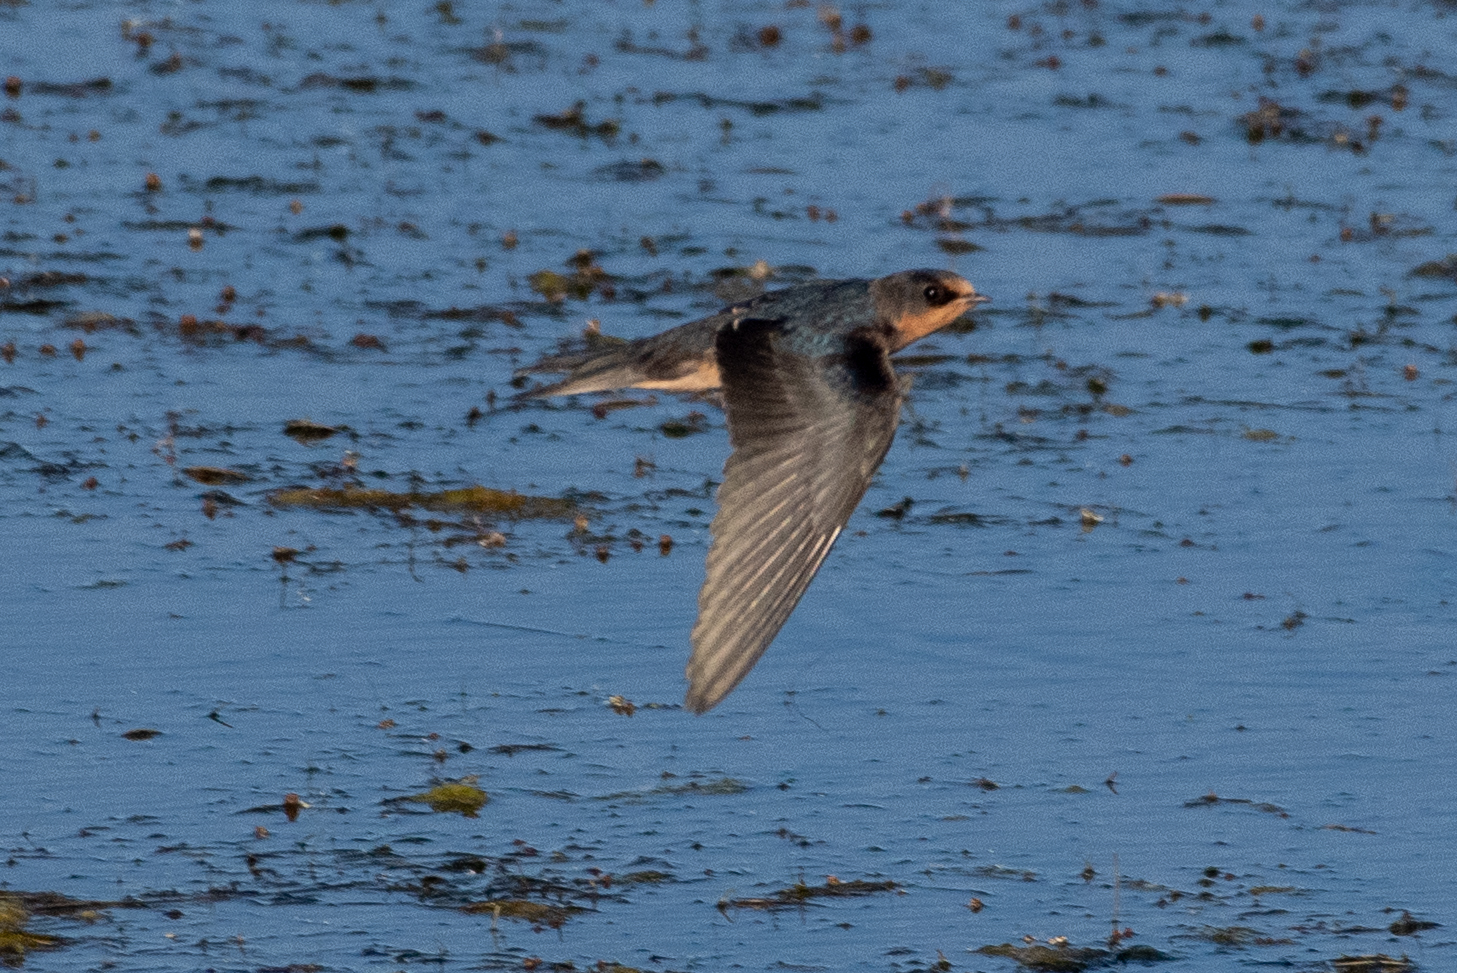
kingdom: Animalia
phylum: Chordata
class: Aves
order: Passeriformes
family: Hirundinidae
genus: Hirundo
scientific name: Hirundo rustica
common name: Barn swallow
